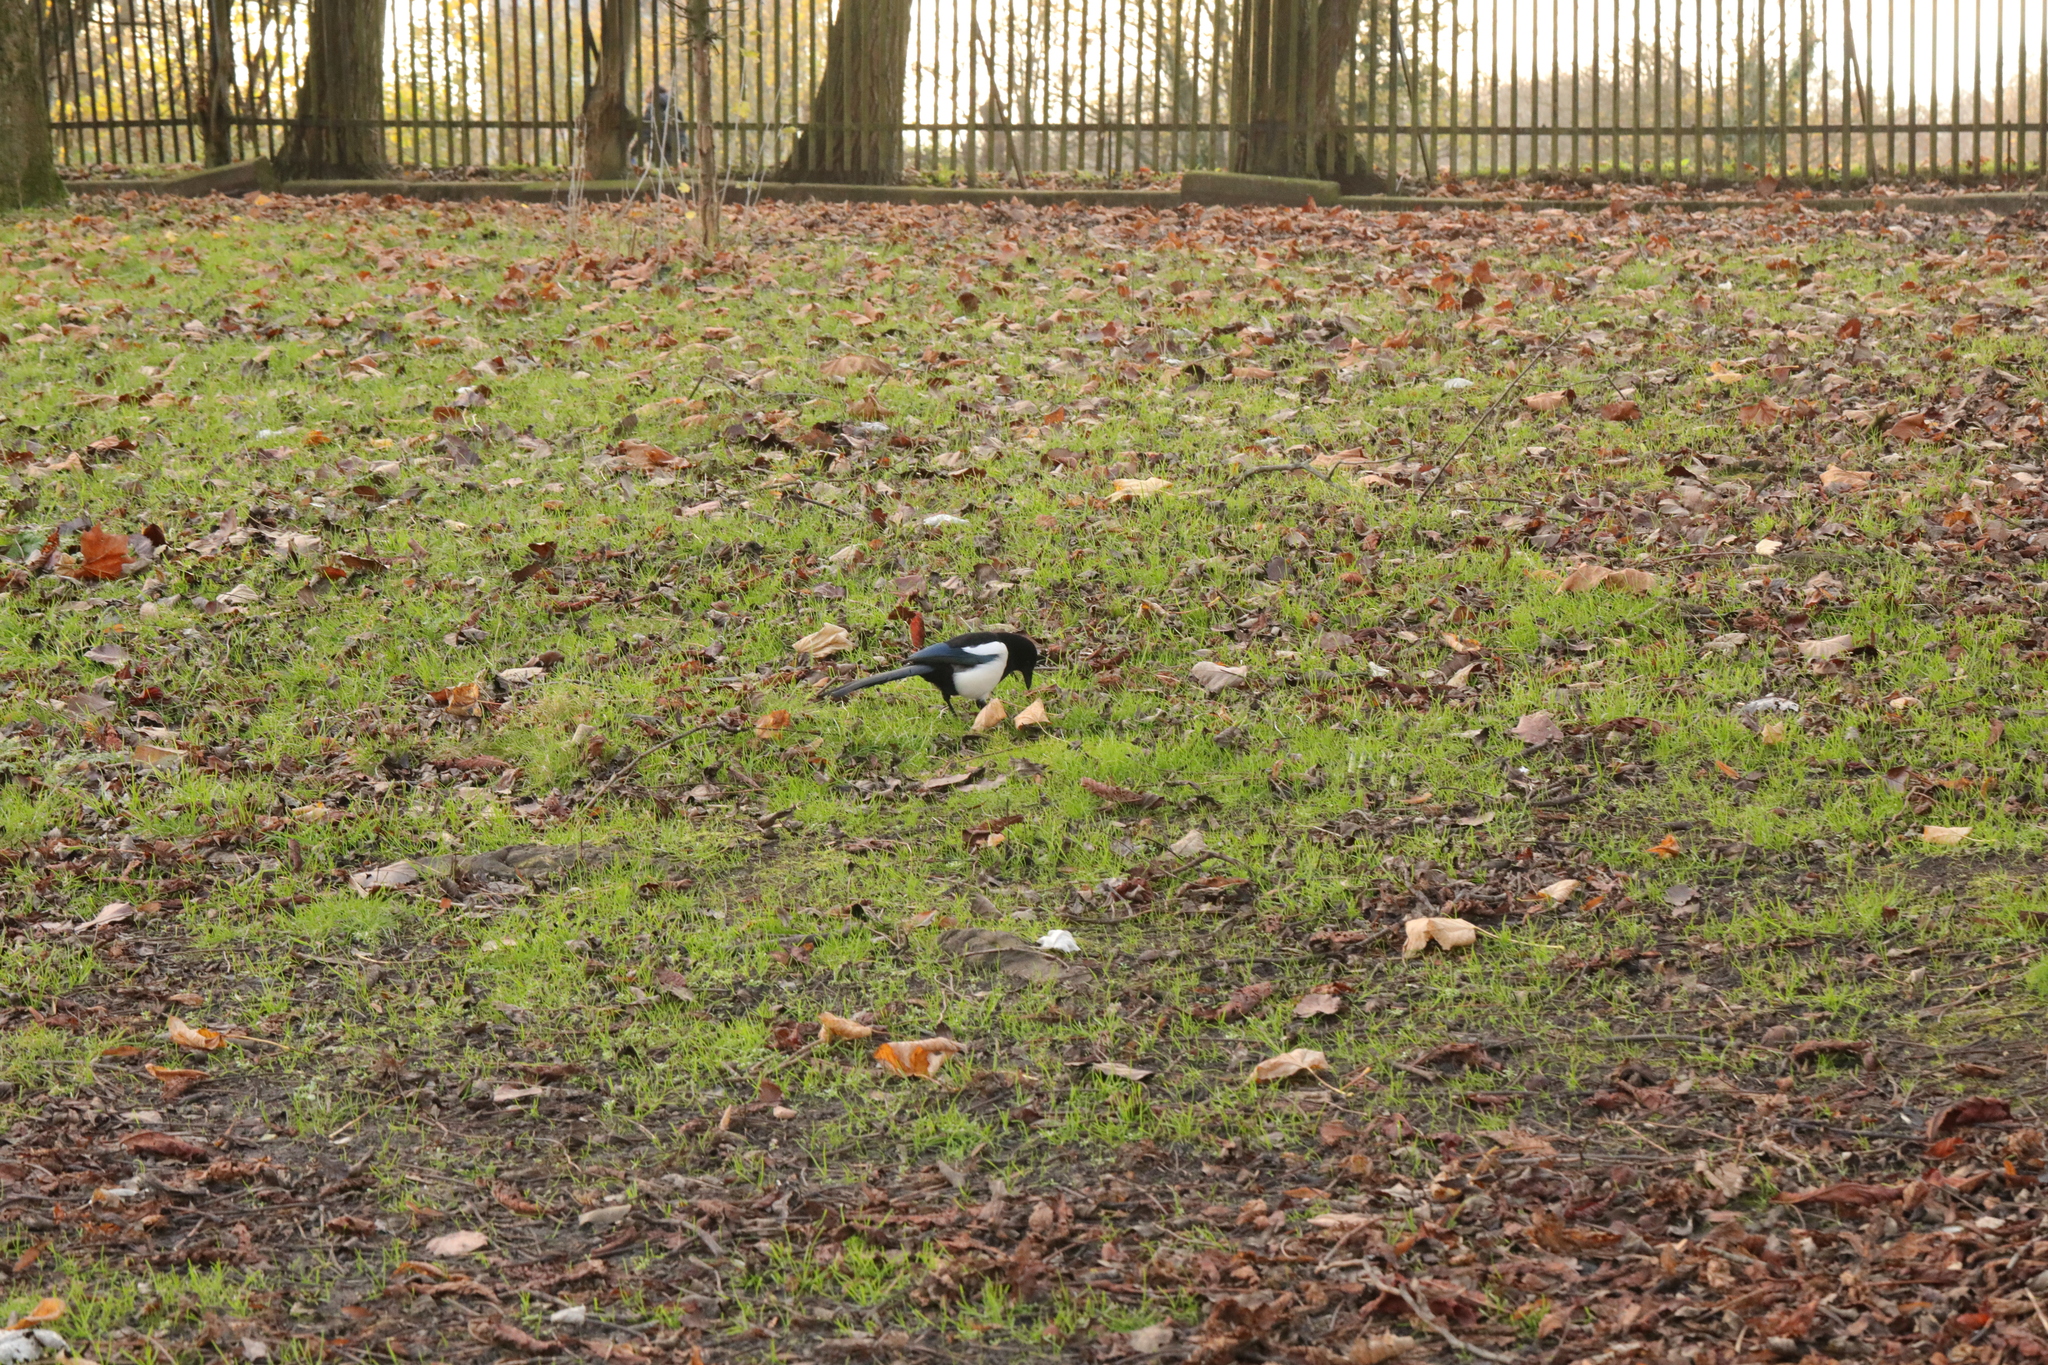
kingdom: Animalia
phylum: Chordata
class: Aves
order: Passeriformes
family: Corvidae
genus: Pica
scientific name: Pica pica
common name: Eurasian magpie
